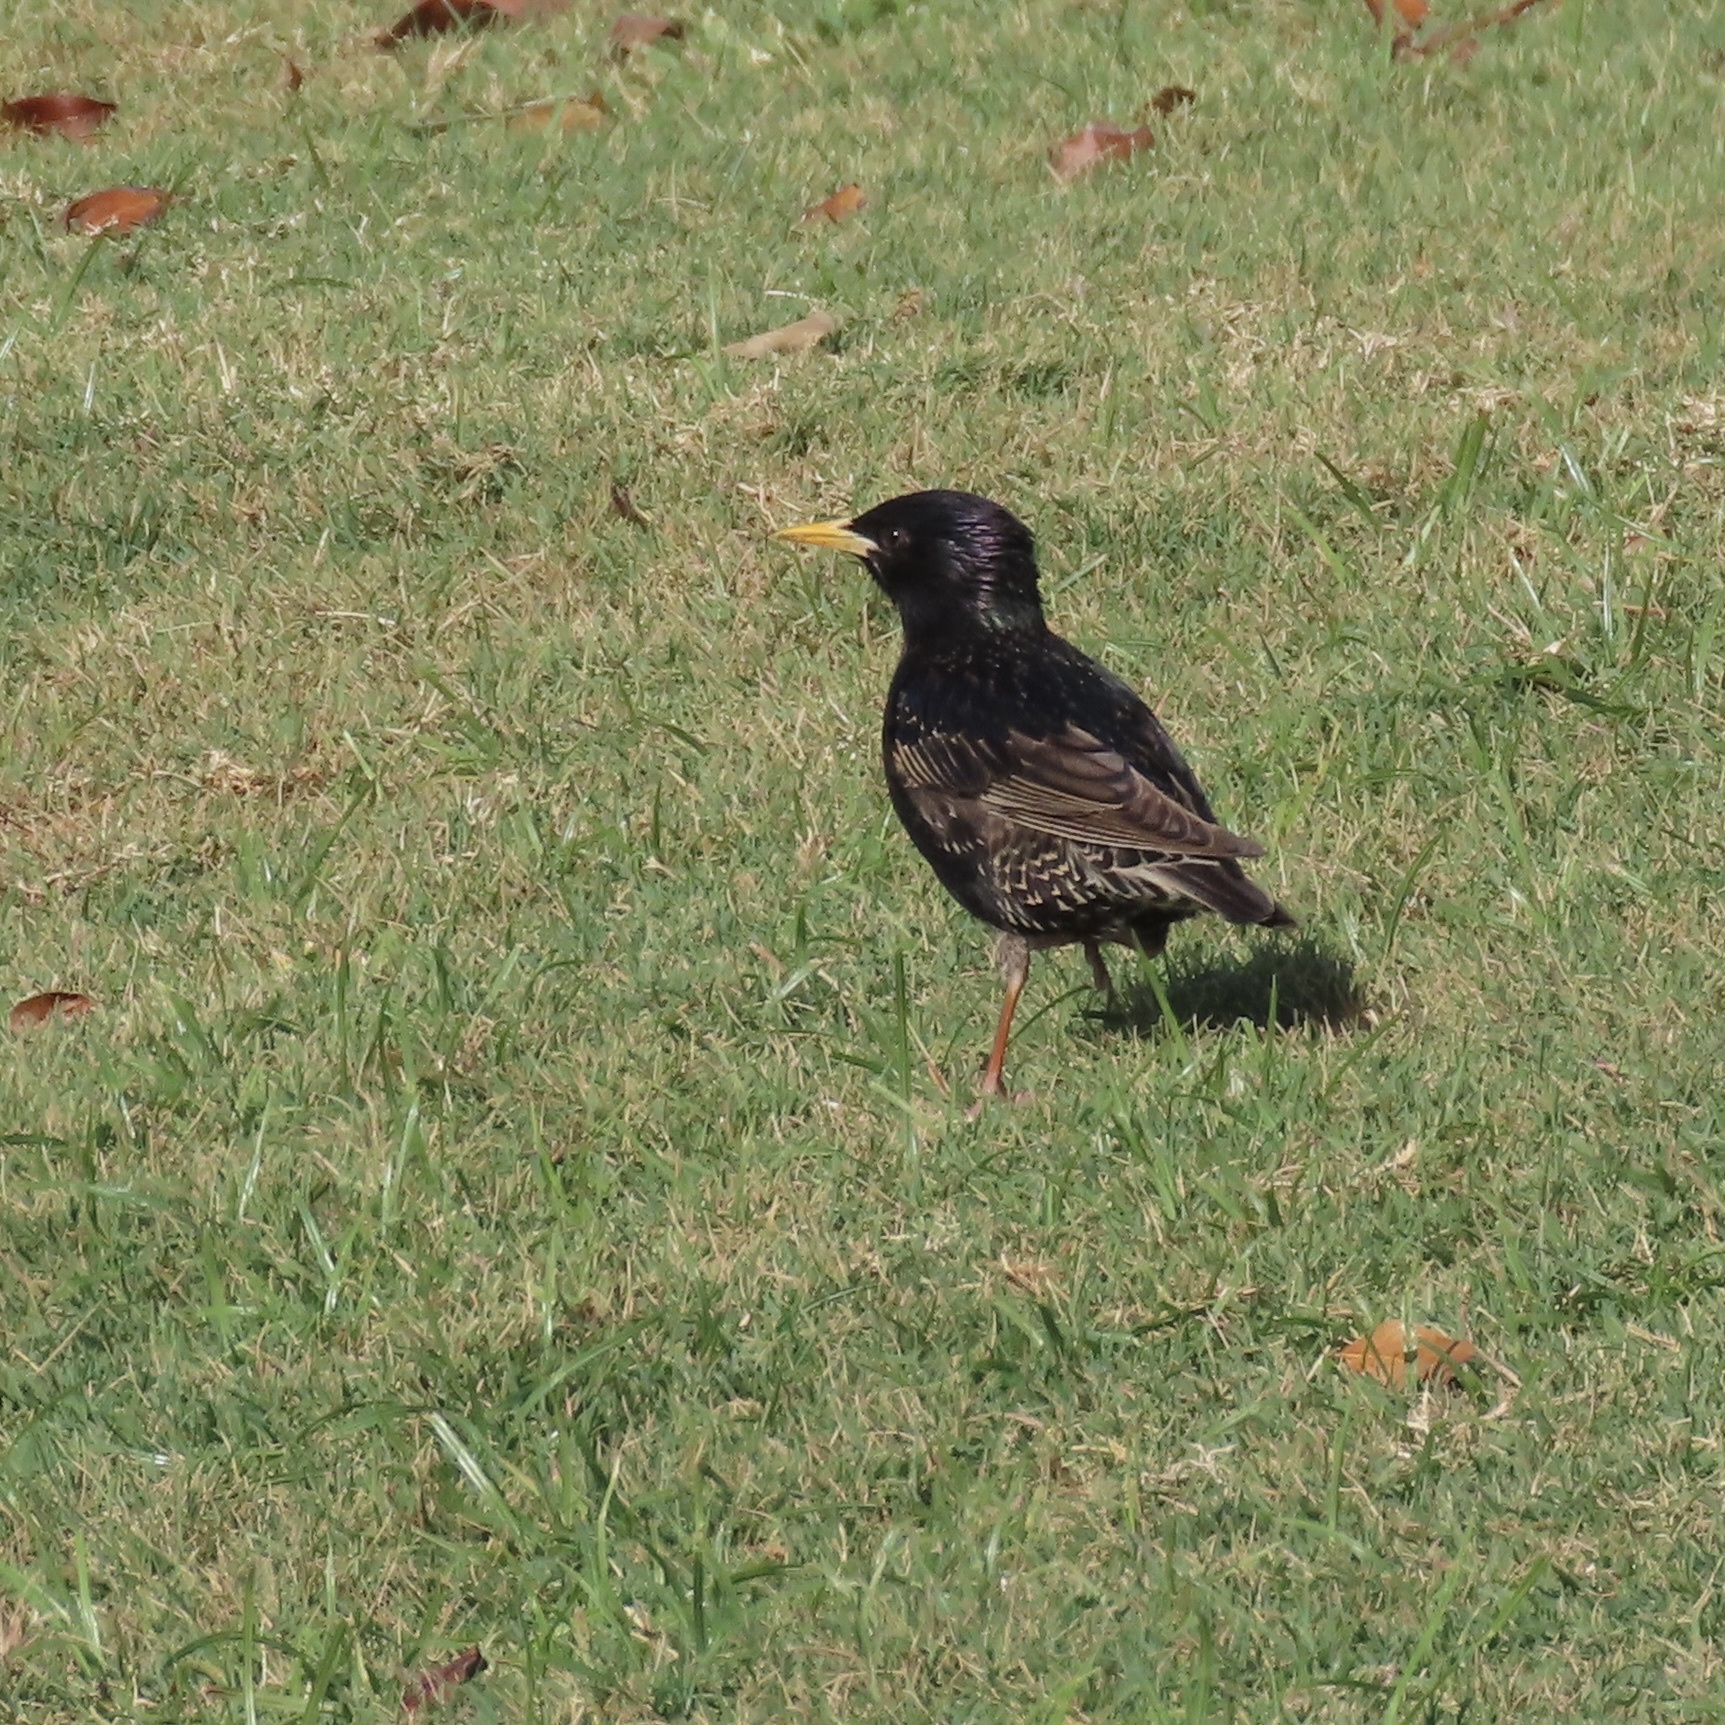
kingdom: Animalia
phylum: Chordata
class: Aves
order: Passeriformes
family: Sturnidae
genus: Sturnus
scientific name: Sturnus vulgaris
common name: Common starling
